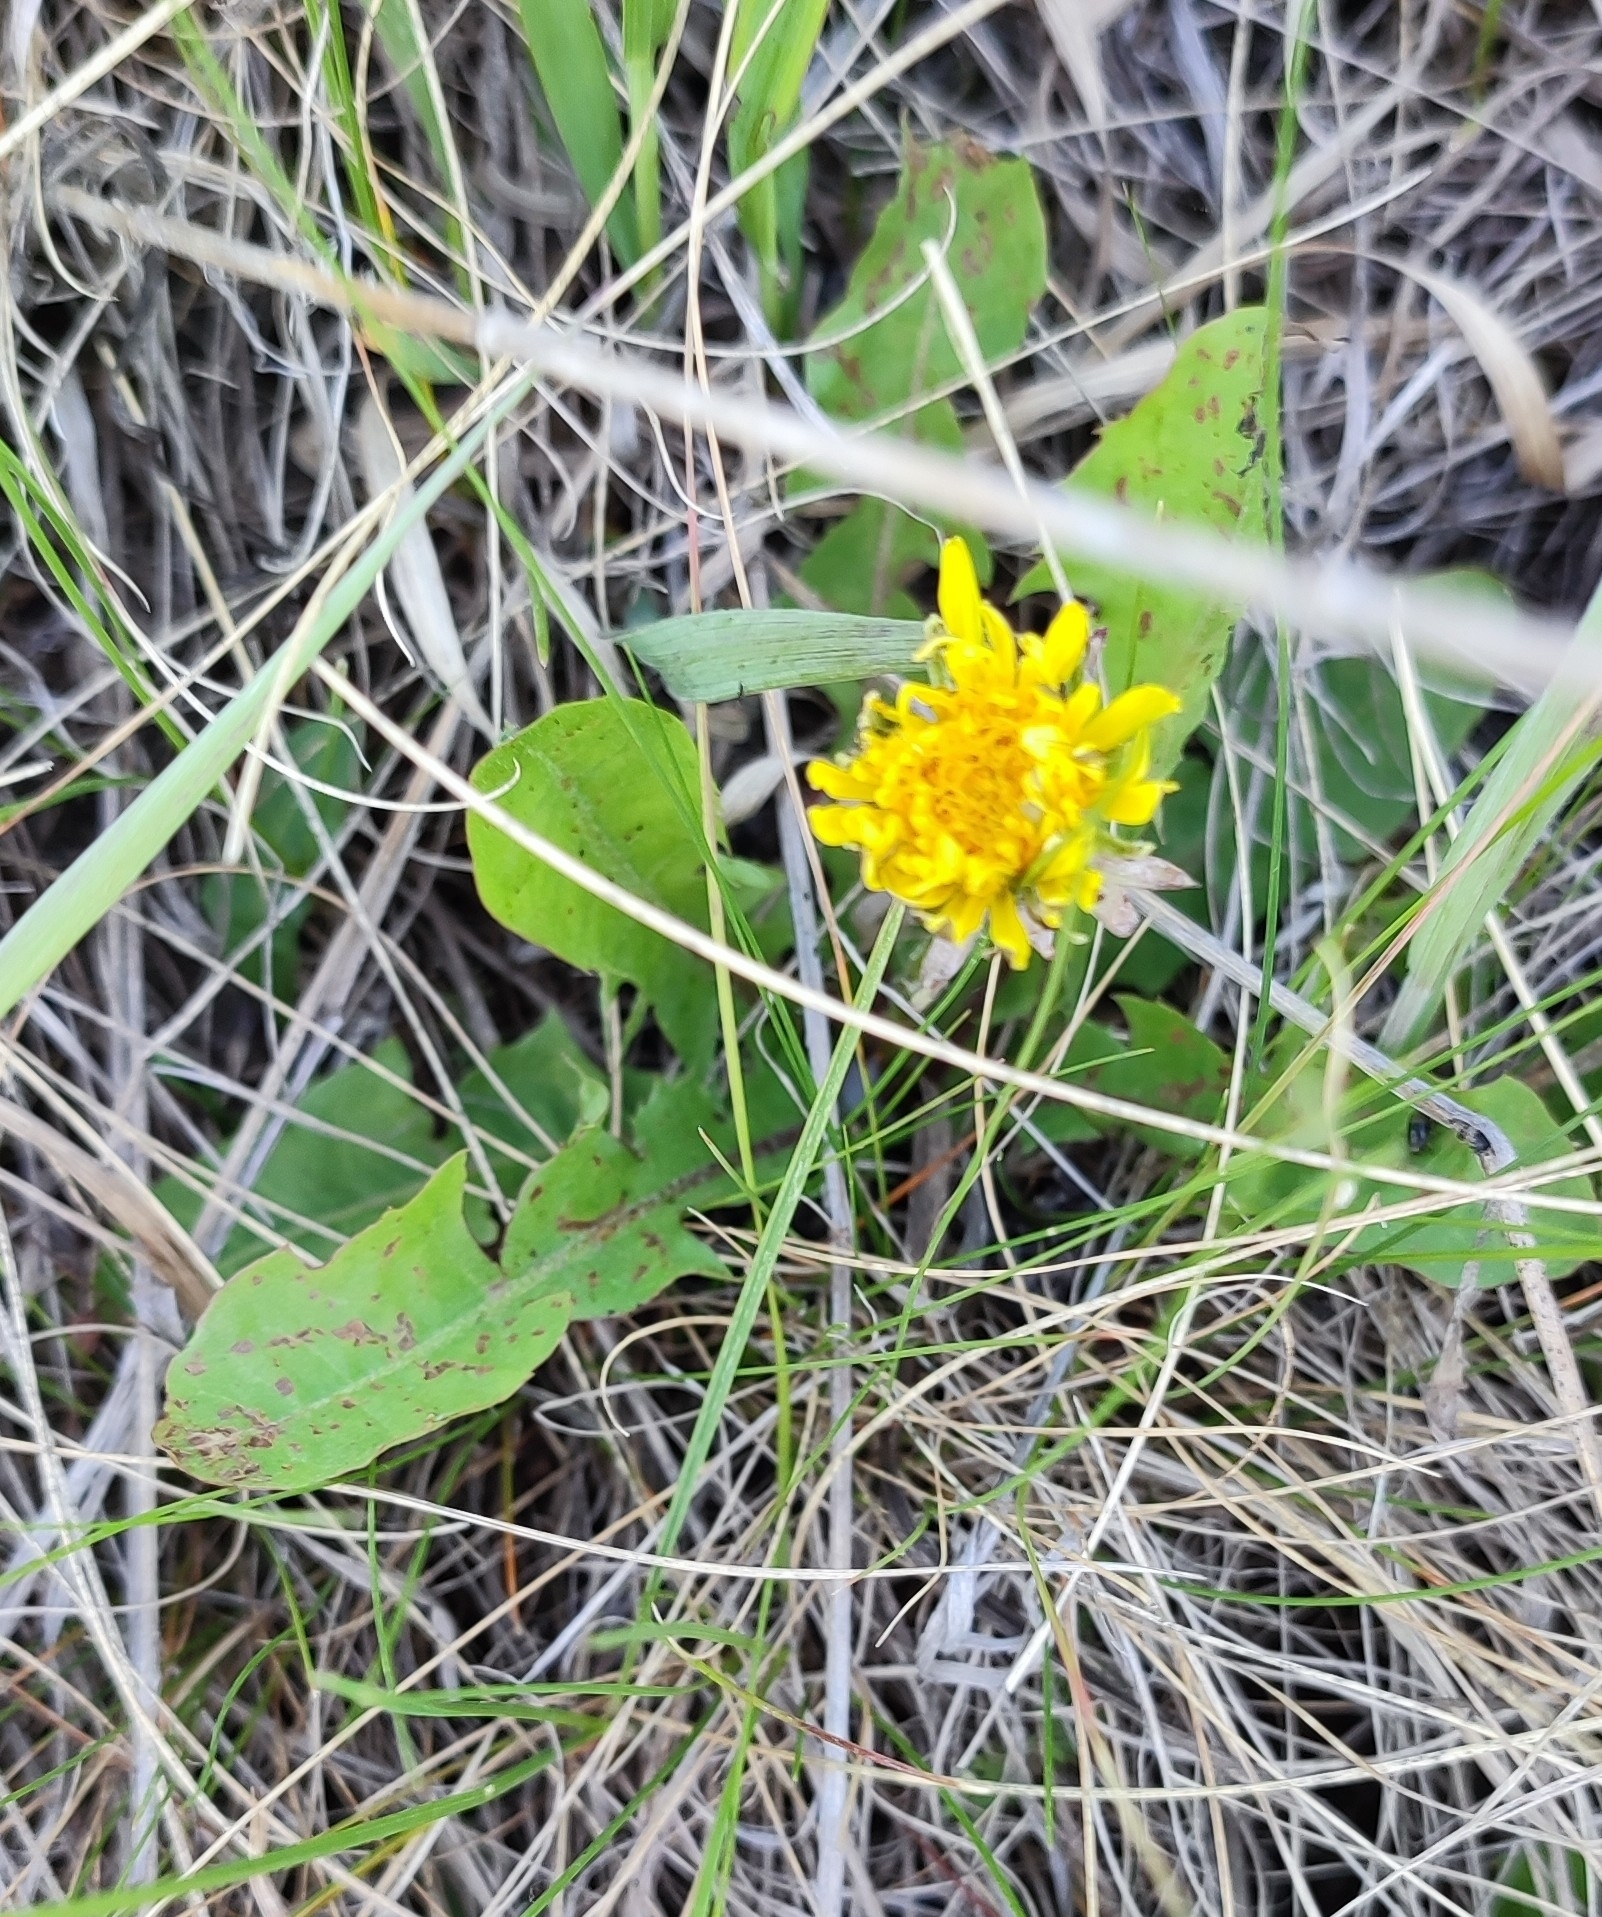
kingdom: Plantae
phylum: Tracheophyta
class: Magnoliopsida
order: Asterales
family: Asteraceae
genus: Taraxacum
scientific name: Taraxacum officinale
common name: Common dandelion
